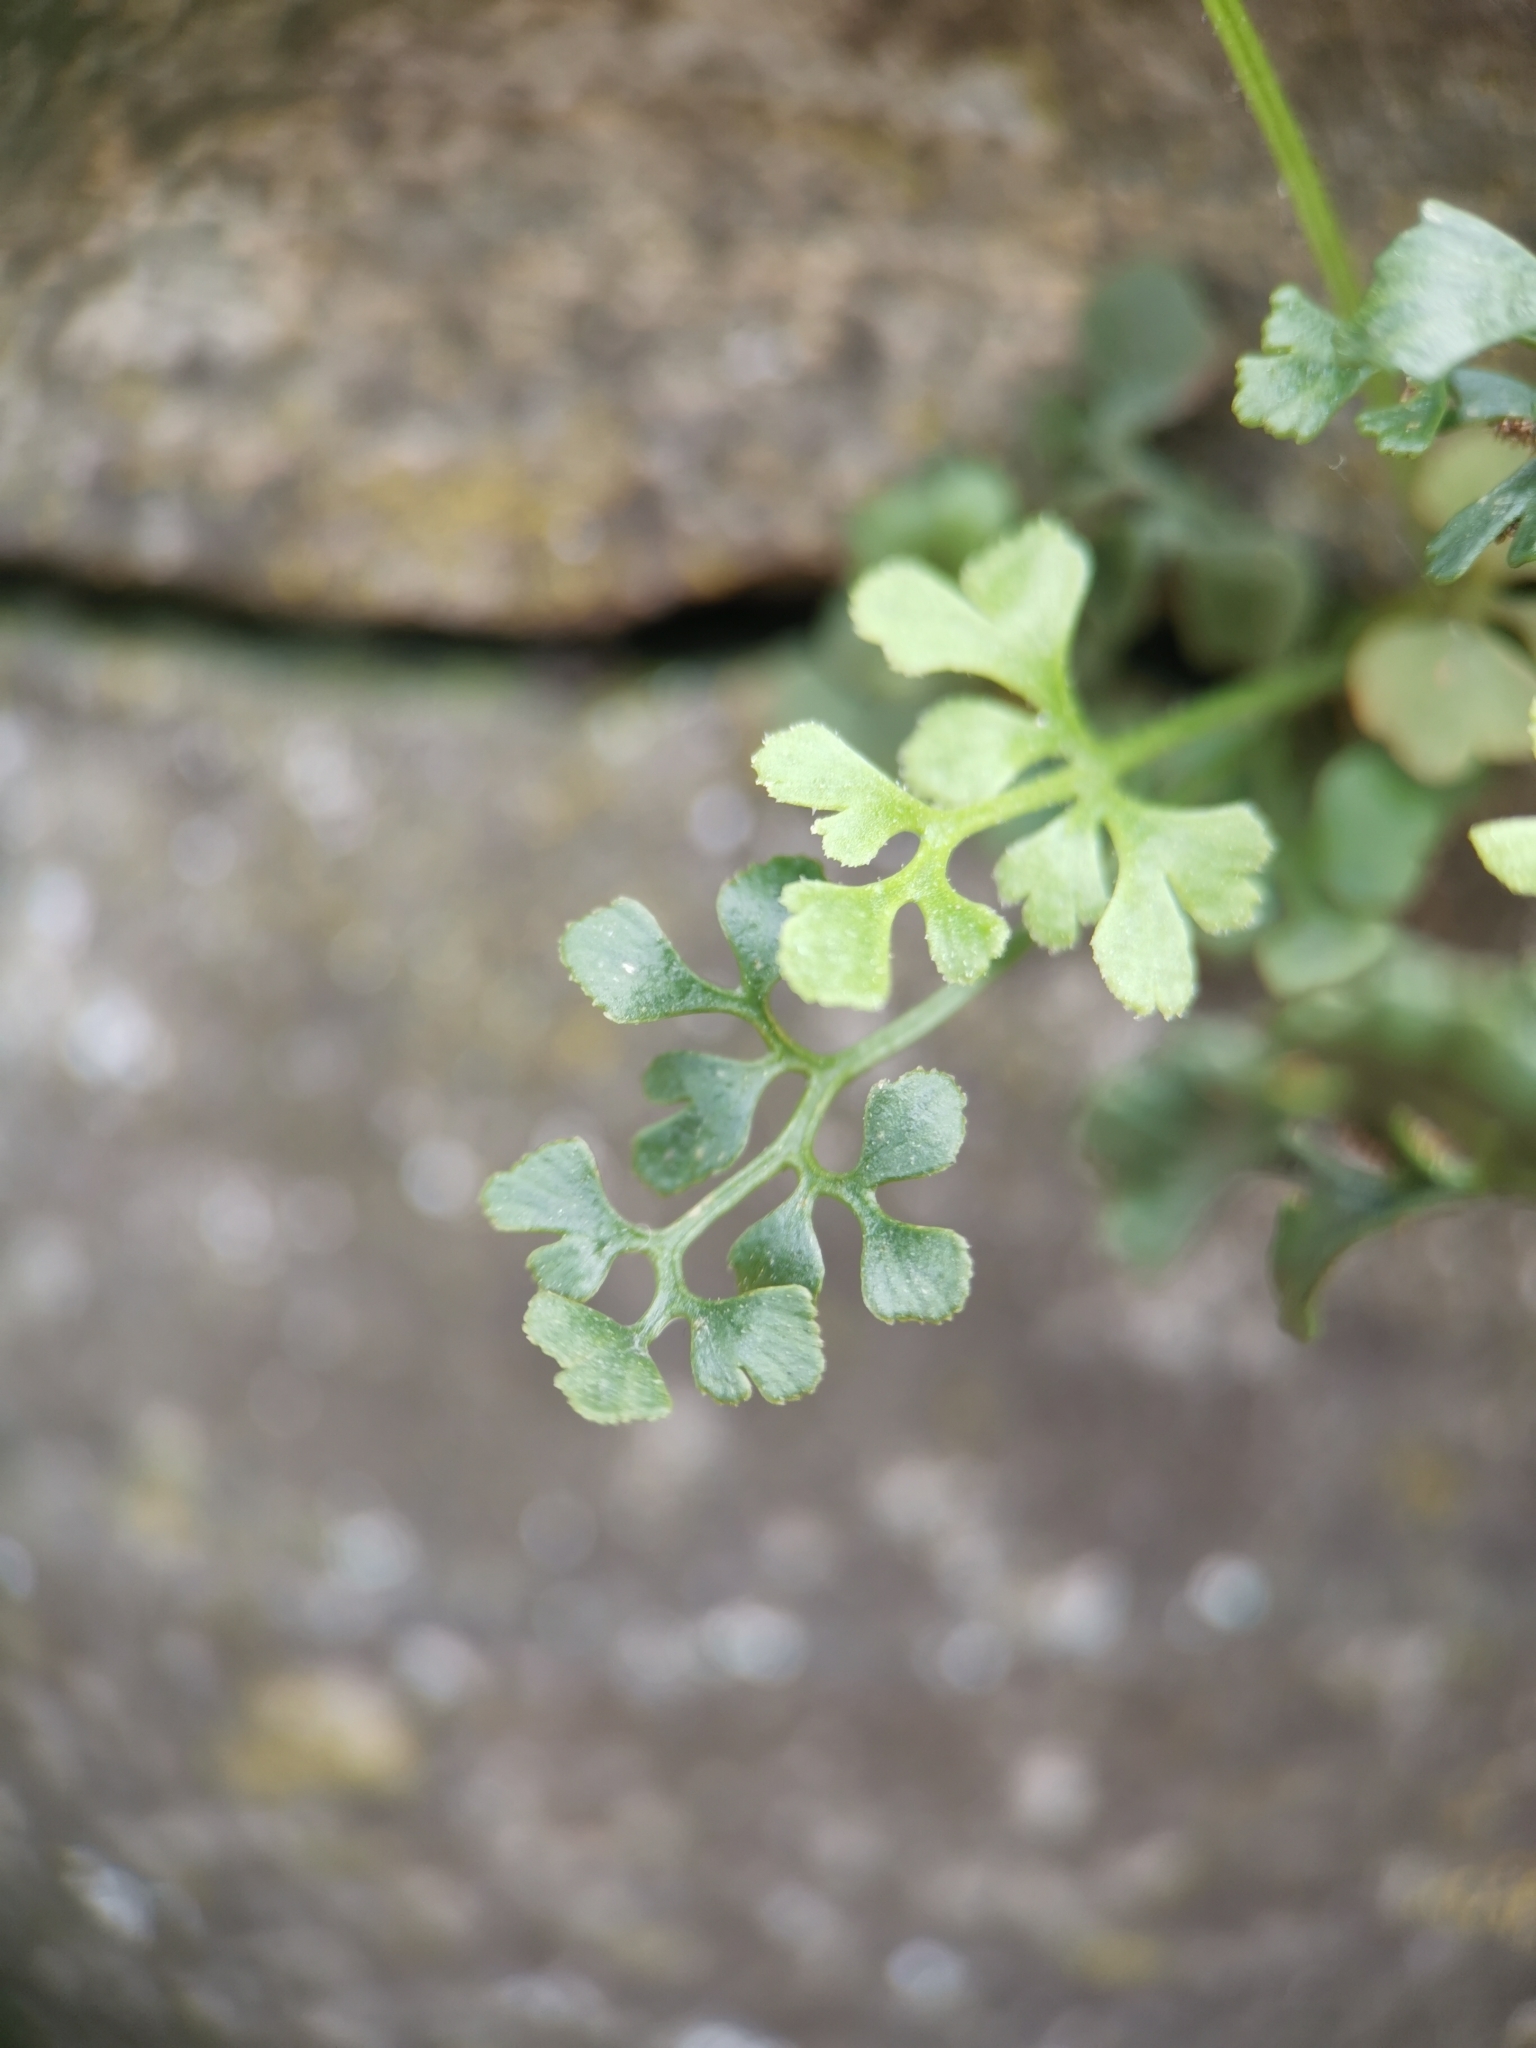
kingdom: Plantae
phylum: Tracheophyta
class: Polypodiopsida
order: Polypodiales
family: Aspleniaceae
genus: Asplenium
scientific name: Asplenium ruta-muraria
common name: Wall-rue
